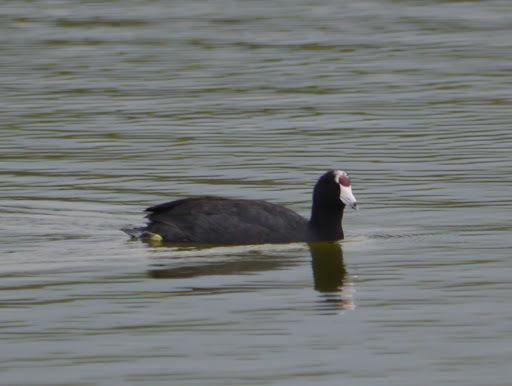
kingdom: Animalia
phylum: Chordata
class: Aves
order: Gruiformes
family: Rallidae
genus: Fulica
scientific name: Fulica alai
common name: Hawaiian coot
